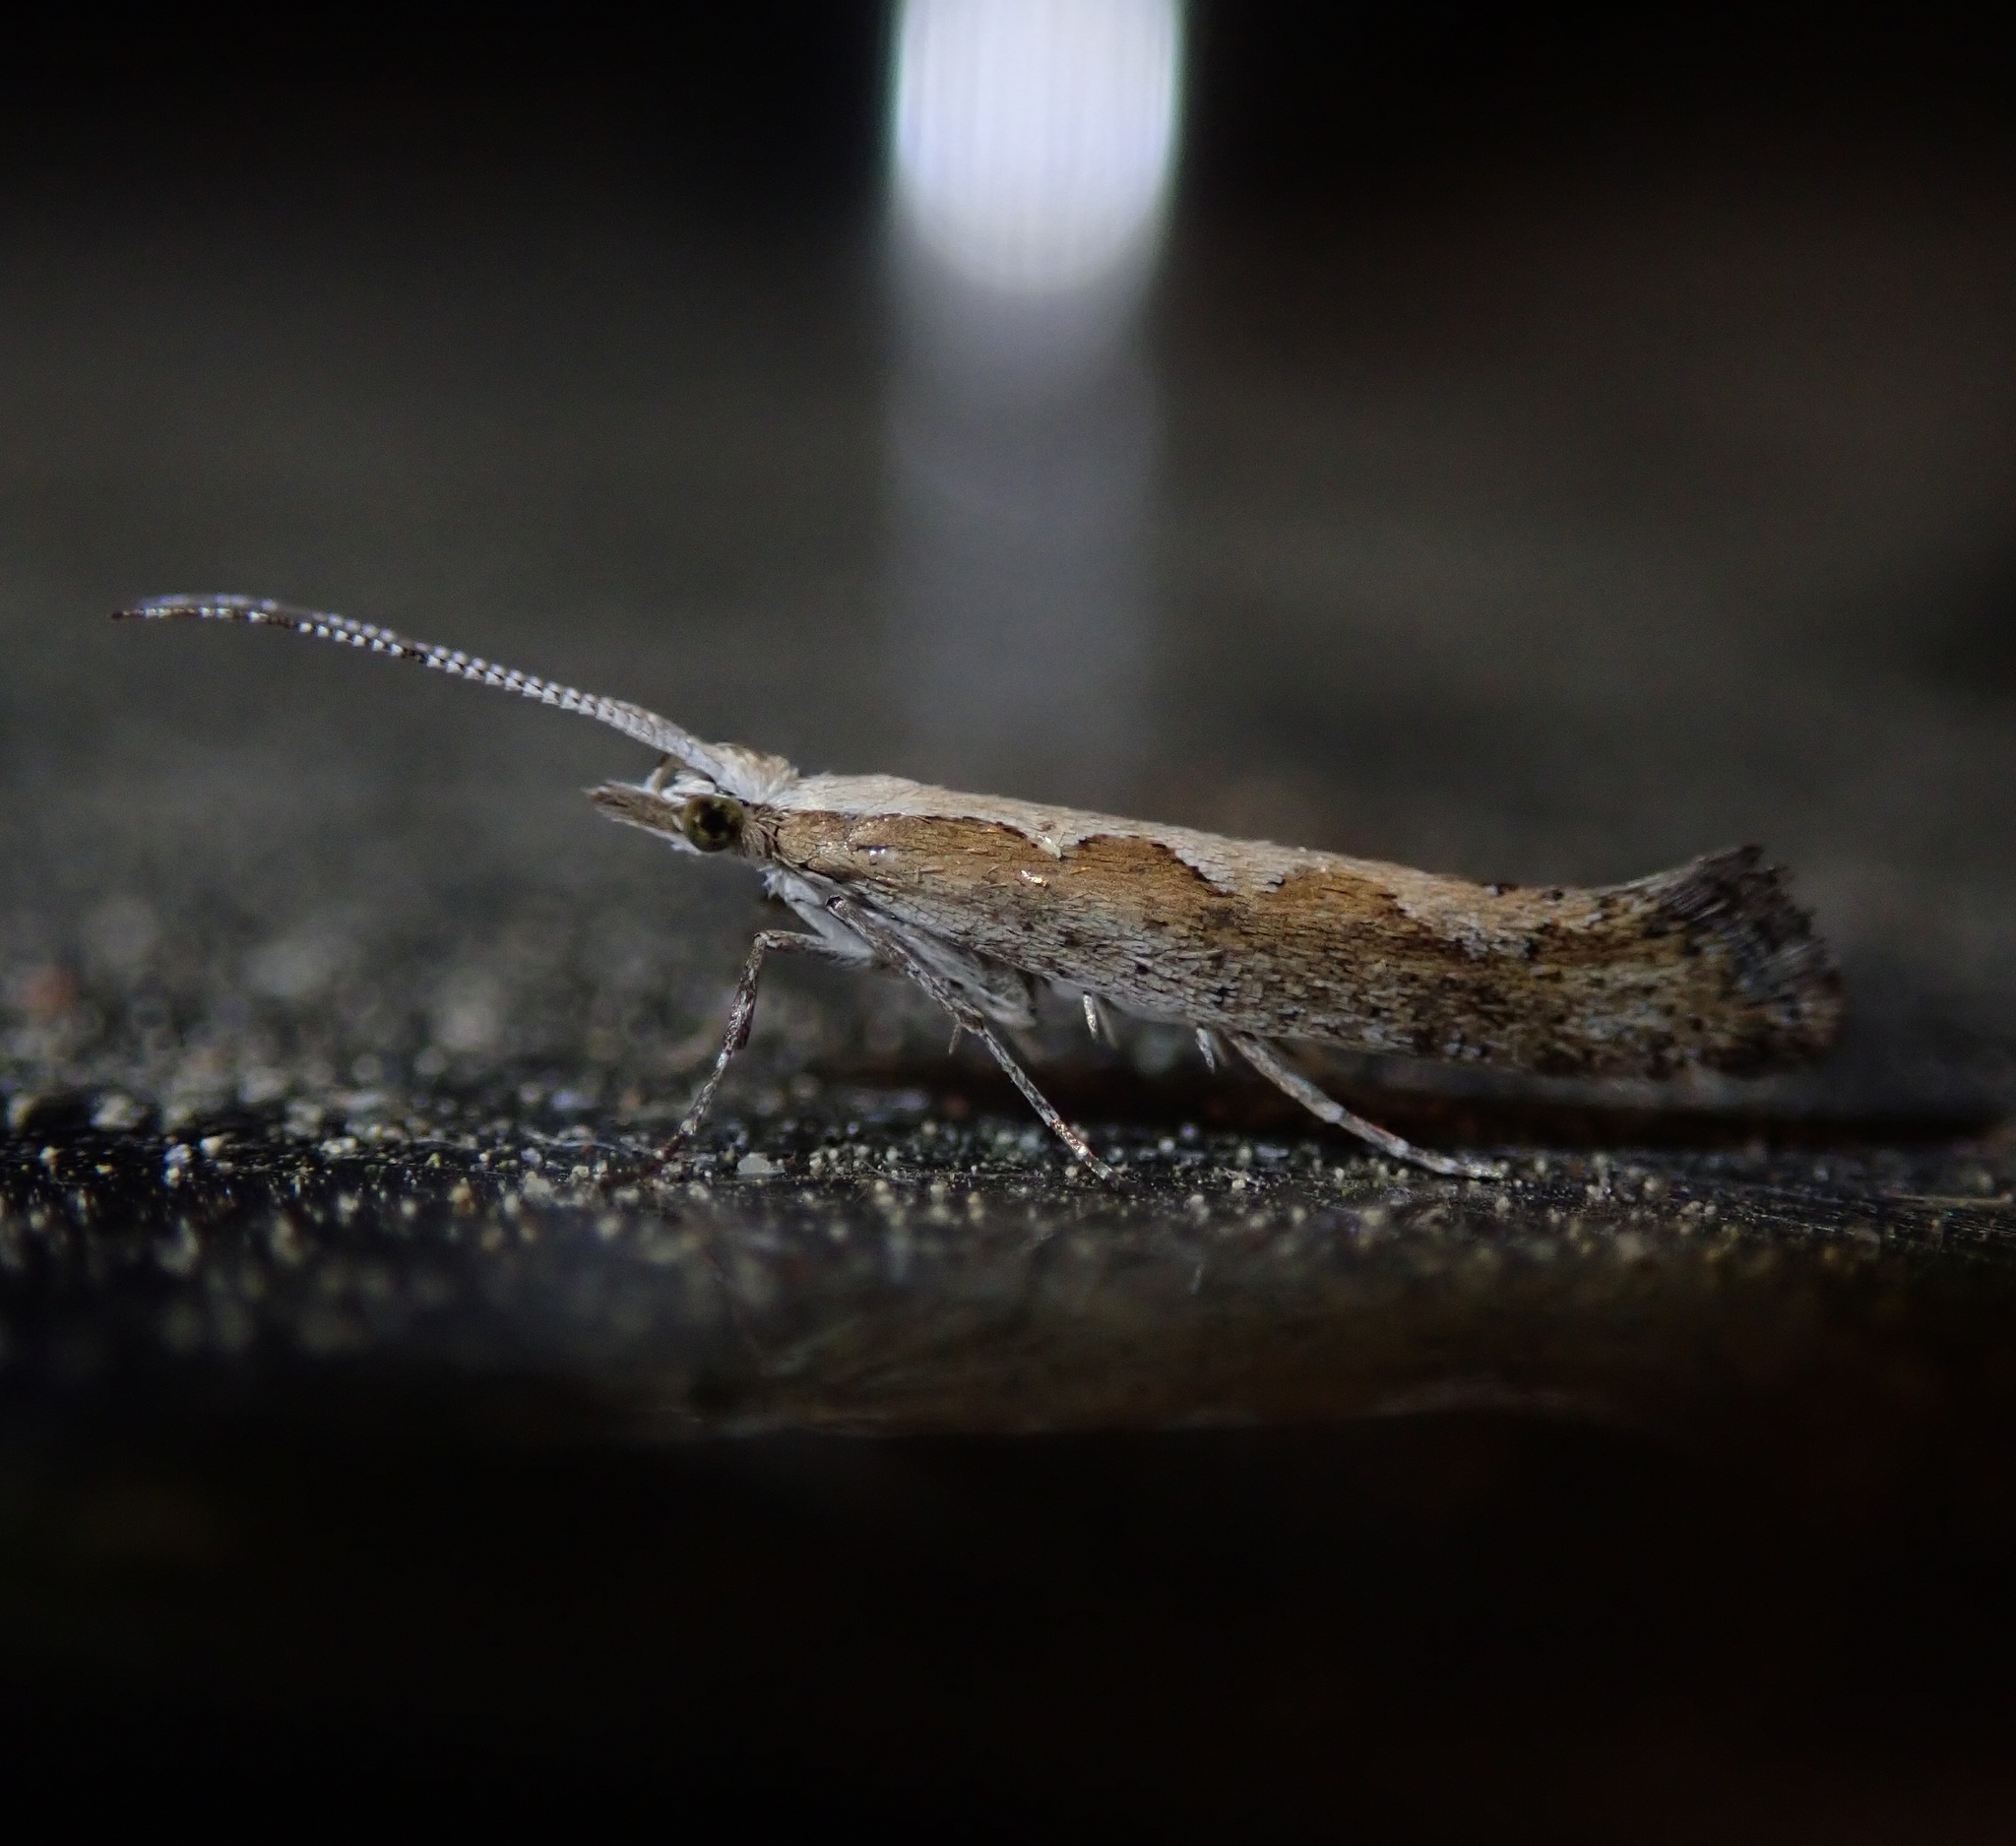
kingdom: Animalia
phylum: Arthropoda
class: Insecta
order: Lepidoptera
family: Plutellidae
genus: Plutella
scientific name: Plutella xylostella
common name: Diamond-back moth
